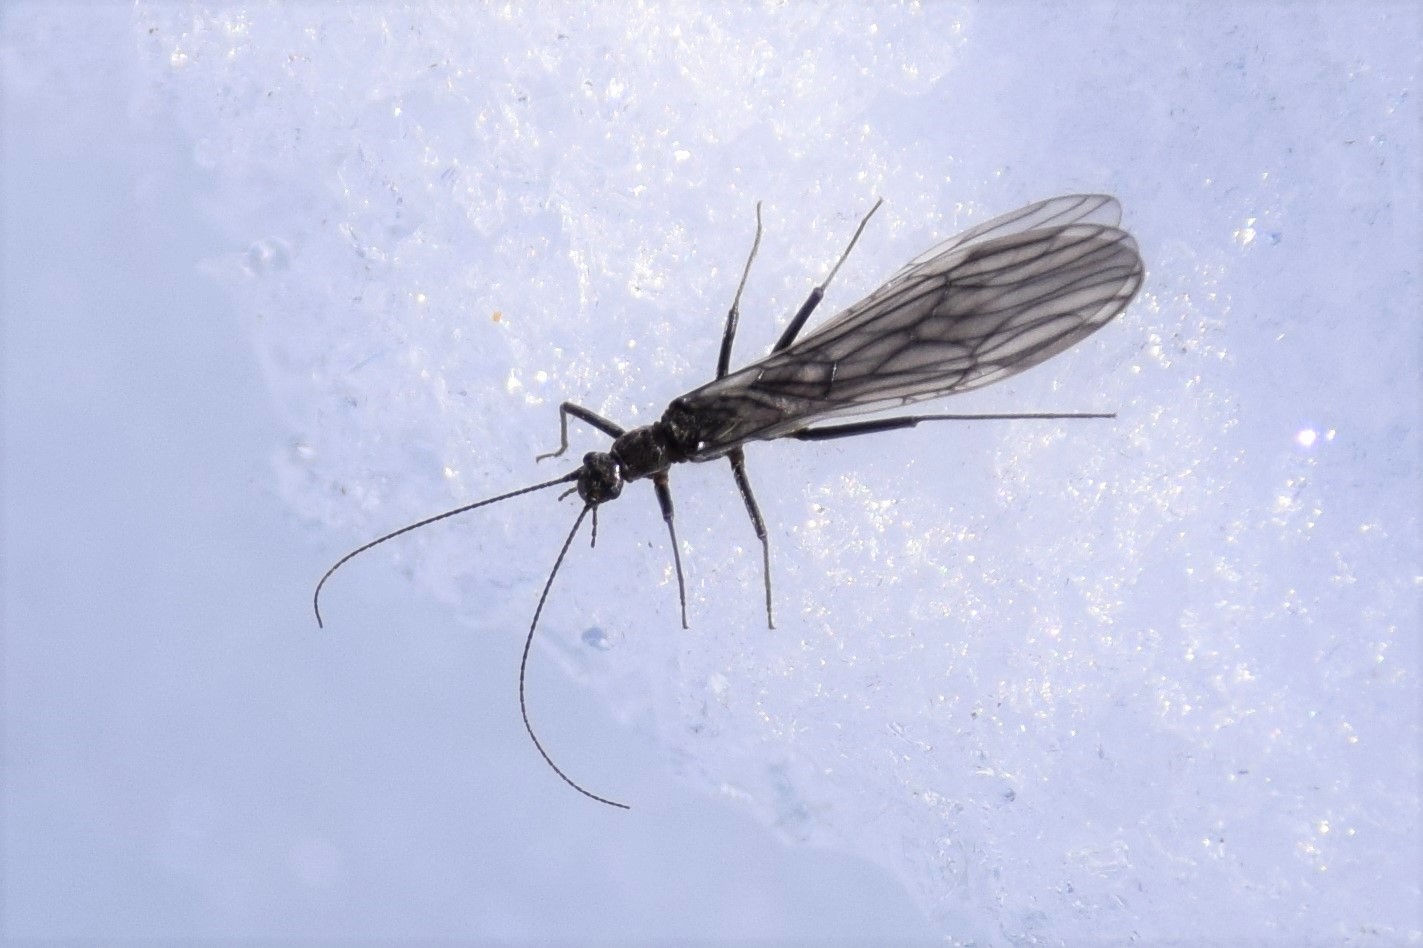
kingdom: Animalia
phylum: Arthropoda
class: Insecta
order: Plecoptera
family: Capniidae
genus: Bolshecapnia
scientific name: Bolshecapnia milami
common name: Glacier snowfly
